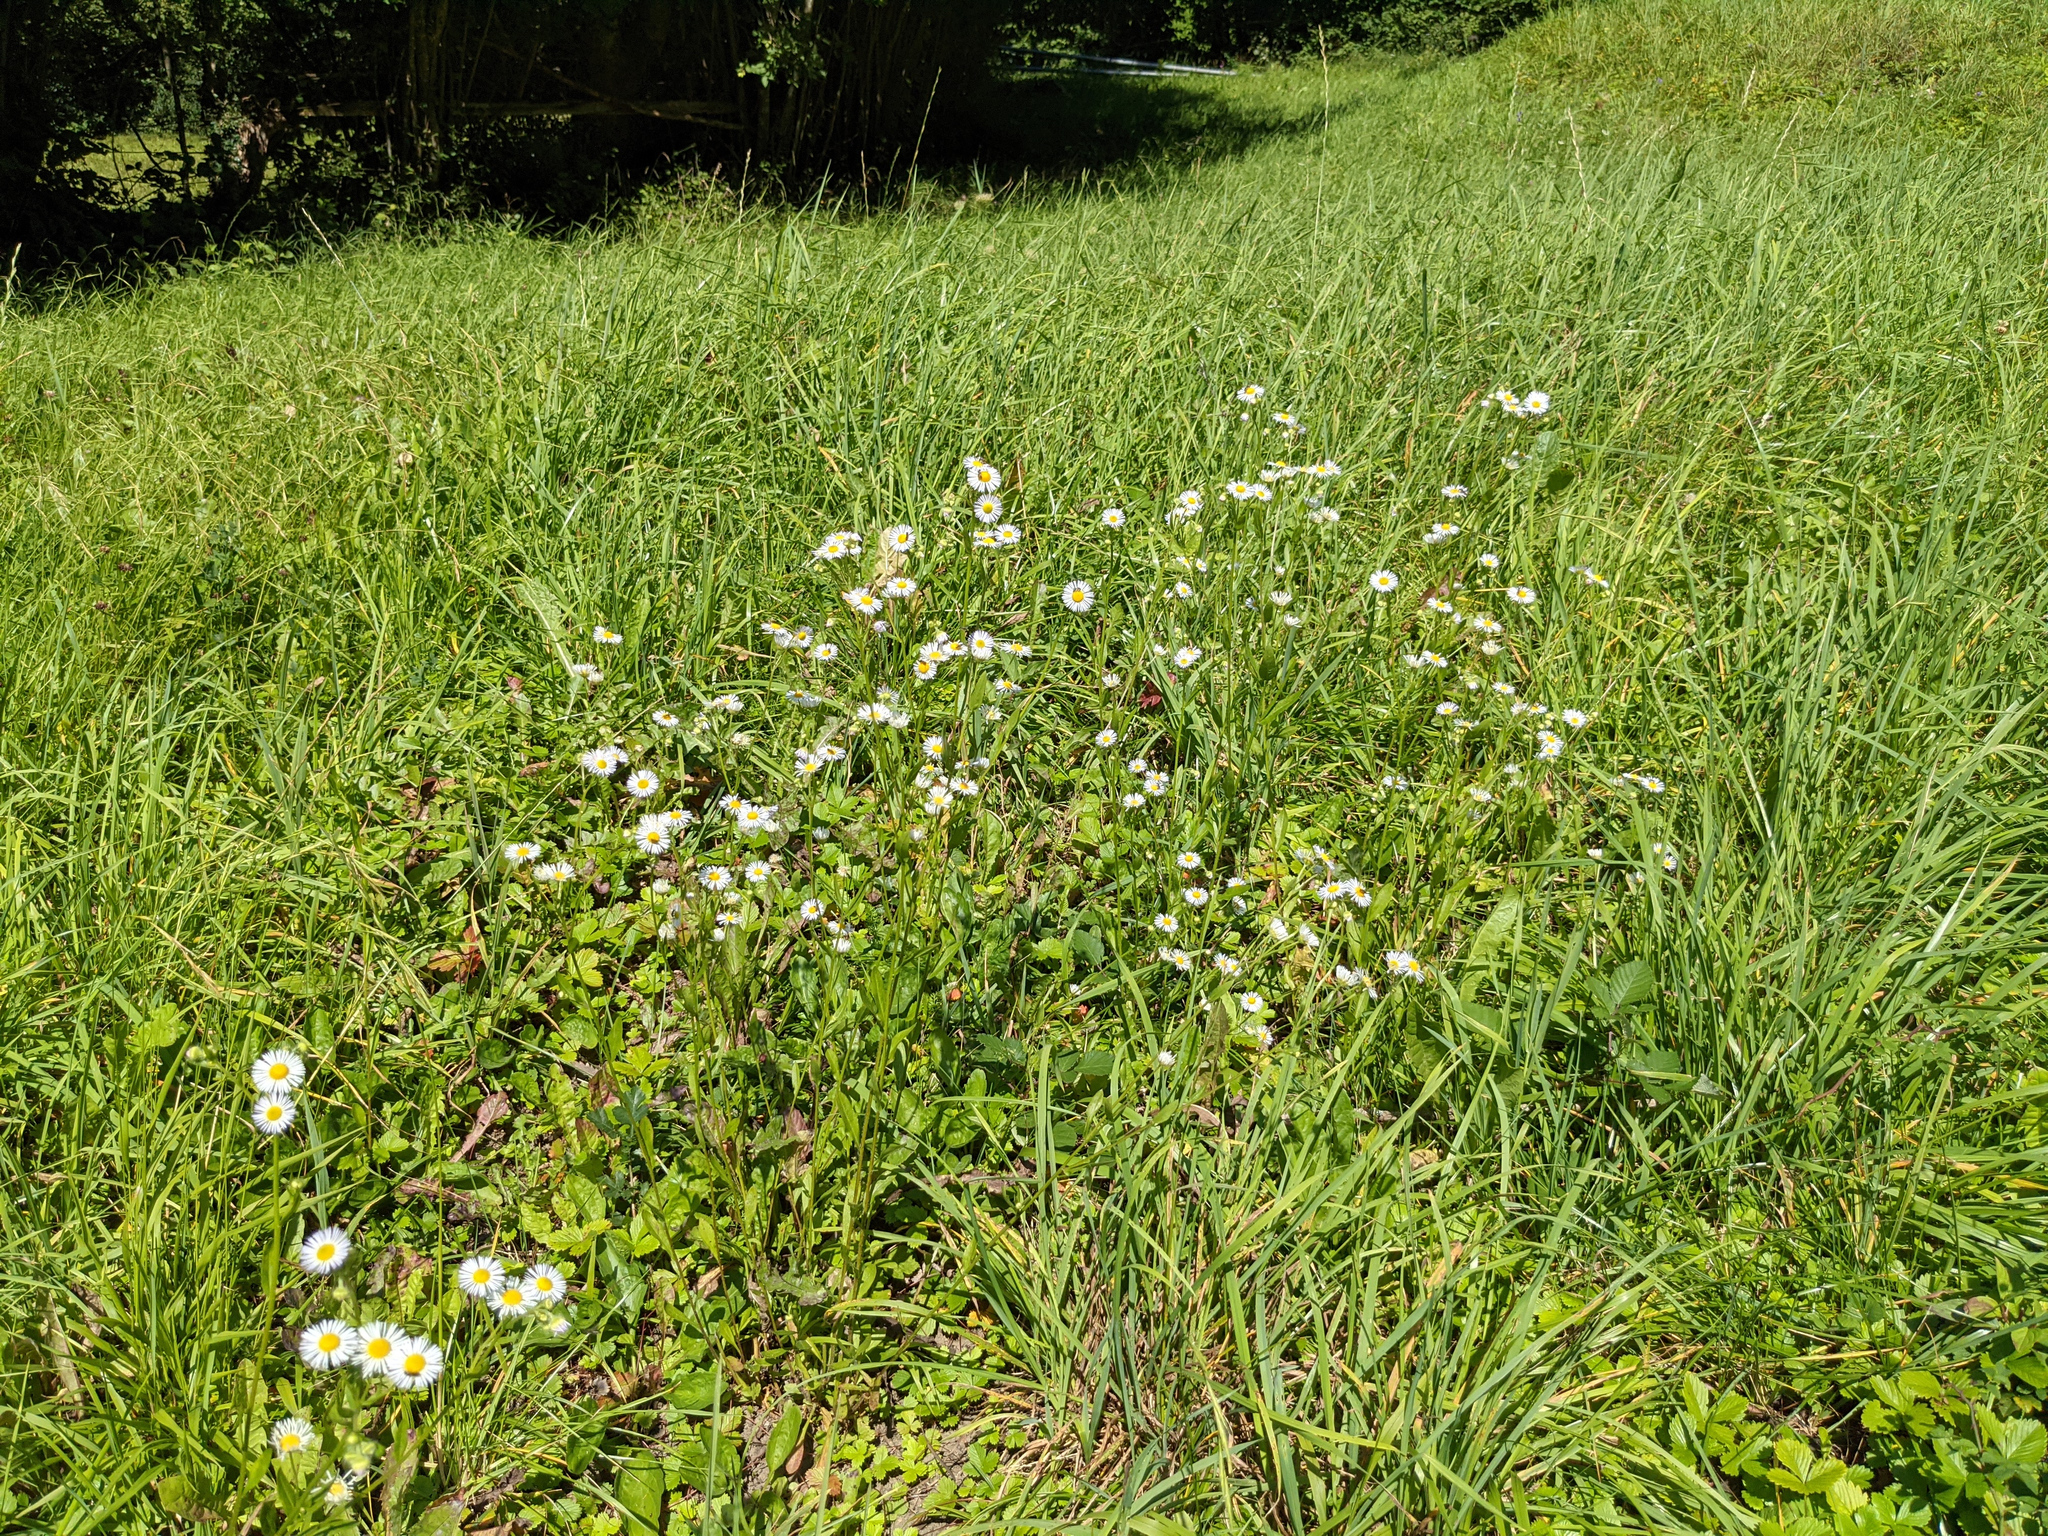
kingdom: Plantae
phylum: Tracheophyta
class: Magnoliopsida
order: Asterales
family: Asteraceae
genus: Erigeron
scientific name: Erigeron annuus
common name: Tall fleabane
